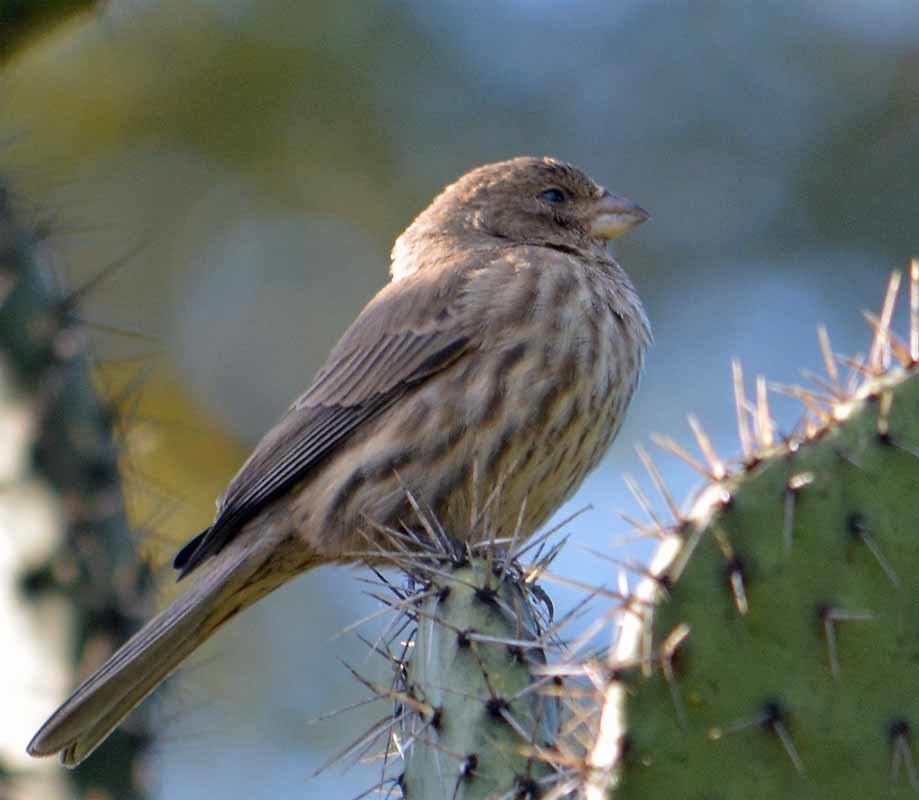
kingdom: Animalia
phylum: Chordata
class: Aves
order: Passeriformes
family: Fringillidae
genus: Haemorhous
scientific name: Haemorhous mexicanus
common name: House finch
